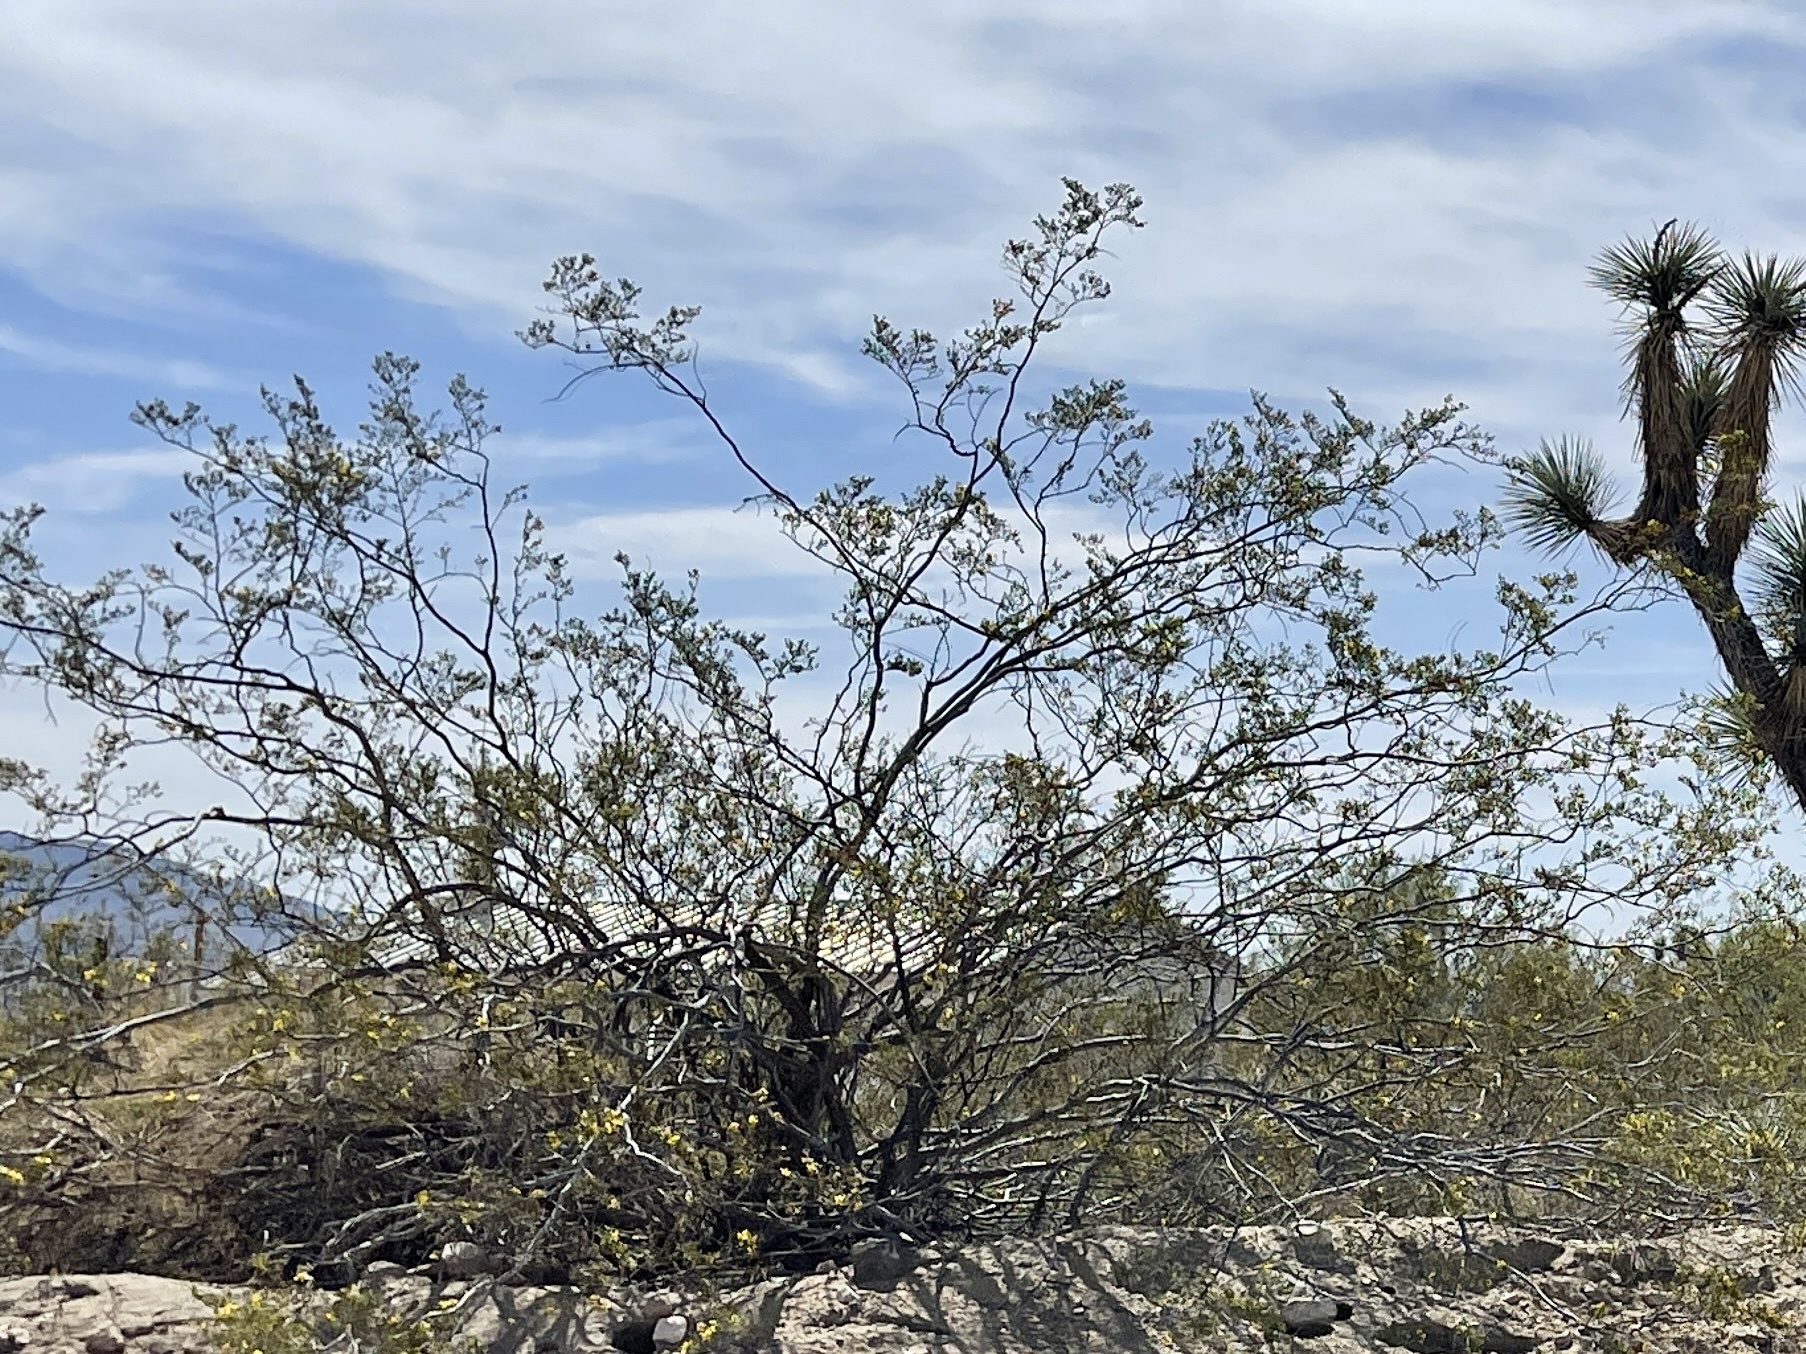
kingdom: Plantae
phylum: Tracheophyta
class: Magnoliopsida
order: Zygophyllales
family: Zygophyllaceae
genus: Larrea
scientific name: Larrea tridentata
